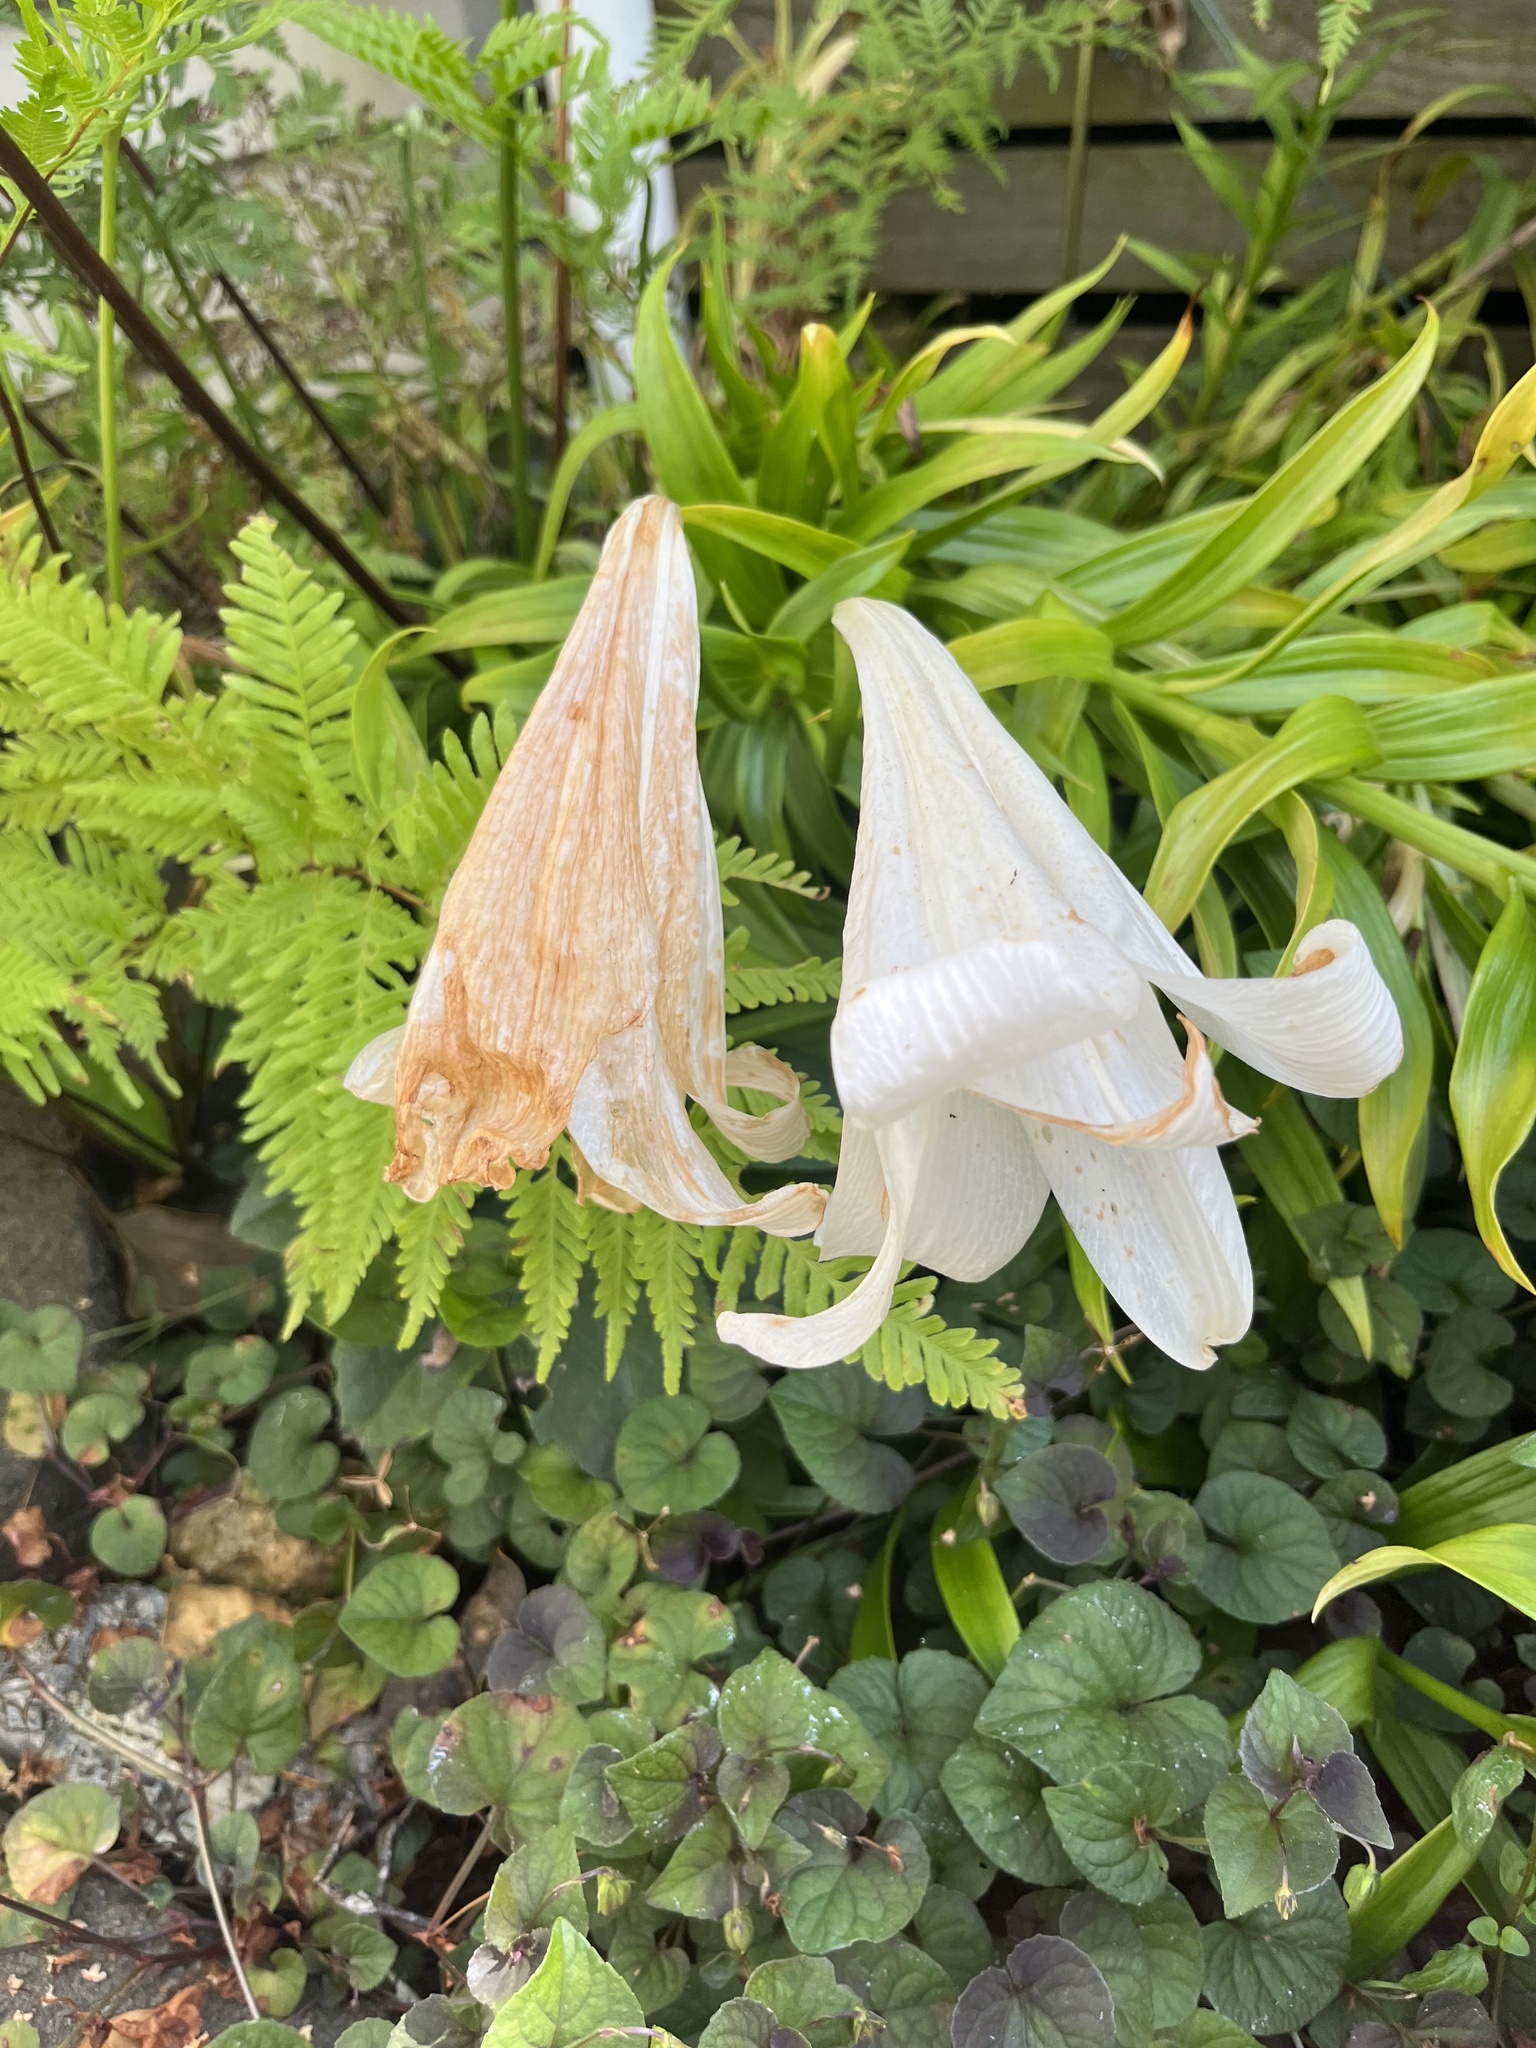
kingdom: Plantae
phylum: Tracheophyta
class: Liliopsida
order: Liliales
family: Liliaceae
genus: Lilium
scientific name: Lilium formosanum
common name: Formosa lily
